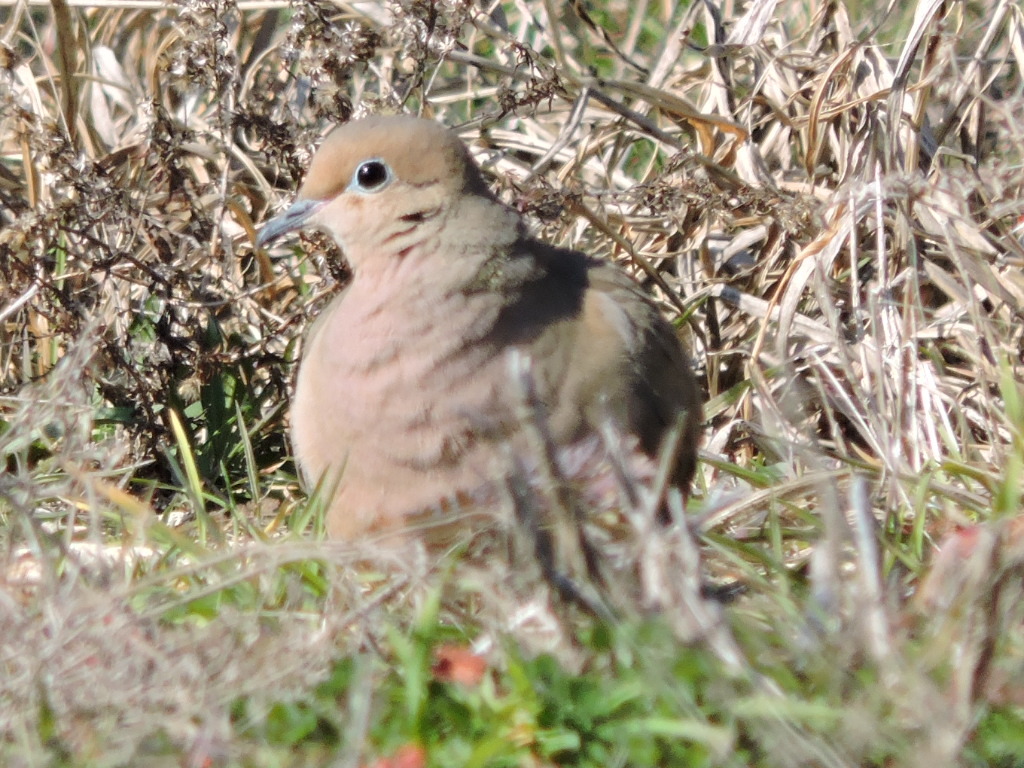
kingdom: Animalia
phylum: Chordata
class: Aves
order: Columbiformes
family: Columbidae
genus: Zenaida
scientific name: Zenaida macroura
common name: Mourning dove
